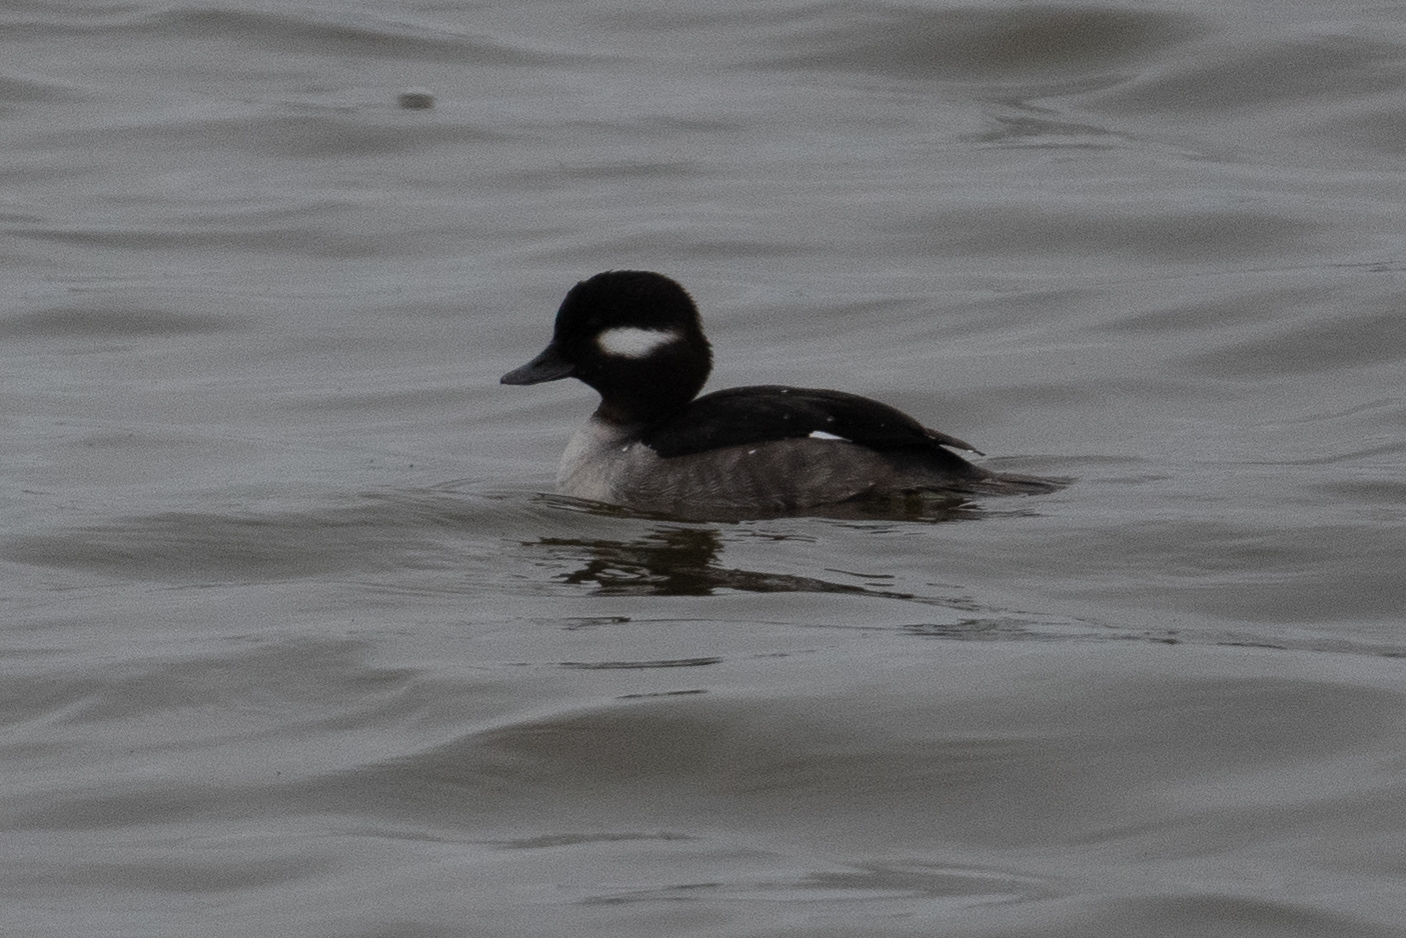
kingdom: Animalia
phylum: Chordata
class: Aves
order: Anseriformes
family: Anatidae
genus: Bucephala
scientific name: Bucephala albeola
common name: Bufflehead
